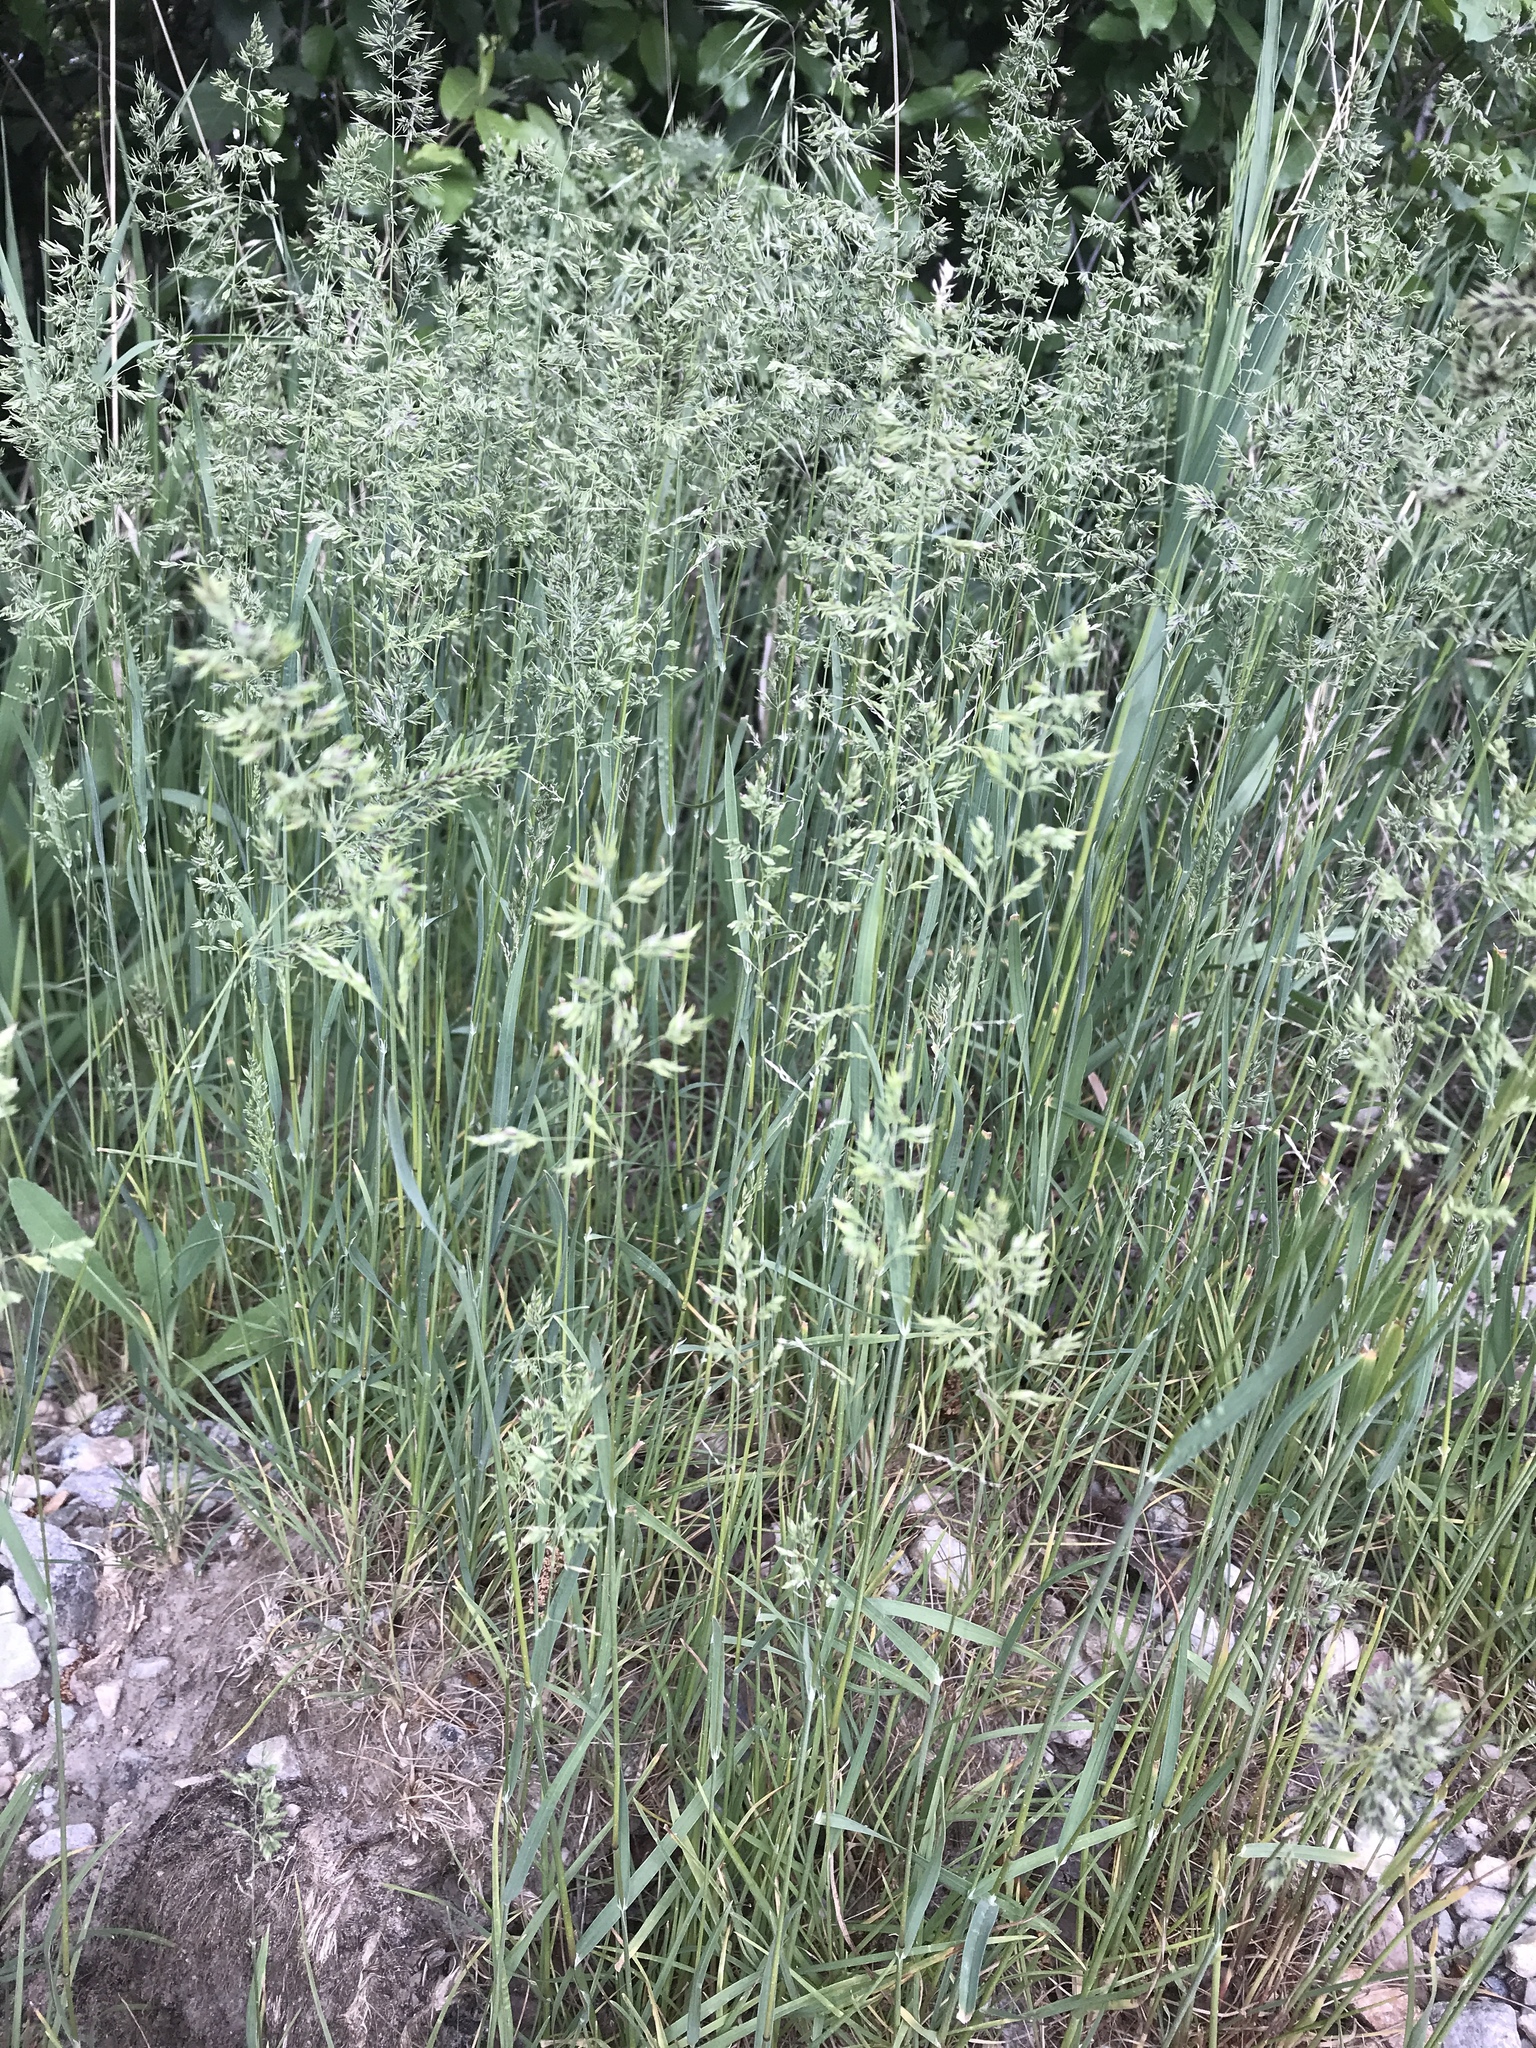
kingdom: Plantae
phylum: Tracheophyta
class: Liliopsida
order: Poales
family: Poaceae
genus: Poa
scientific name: Poa bulbosa
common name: Bulbous bluegrass
